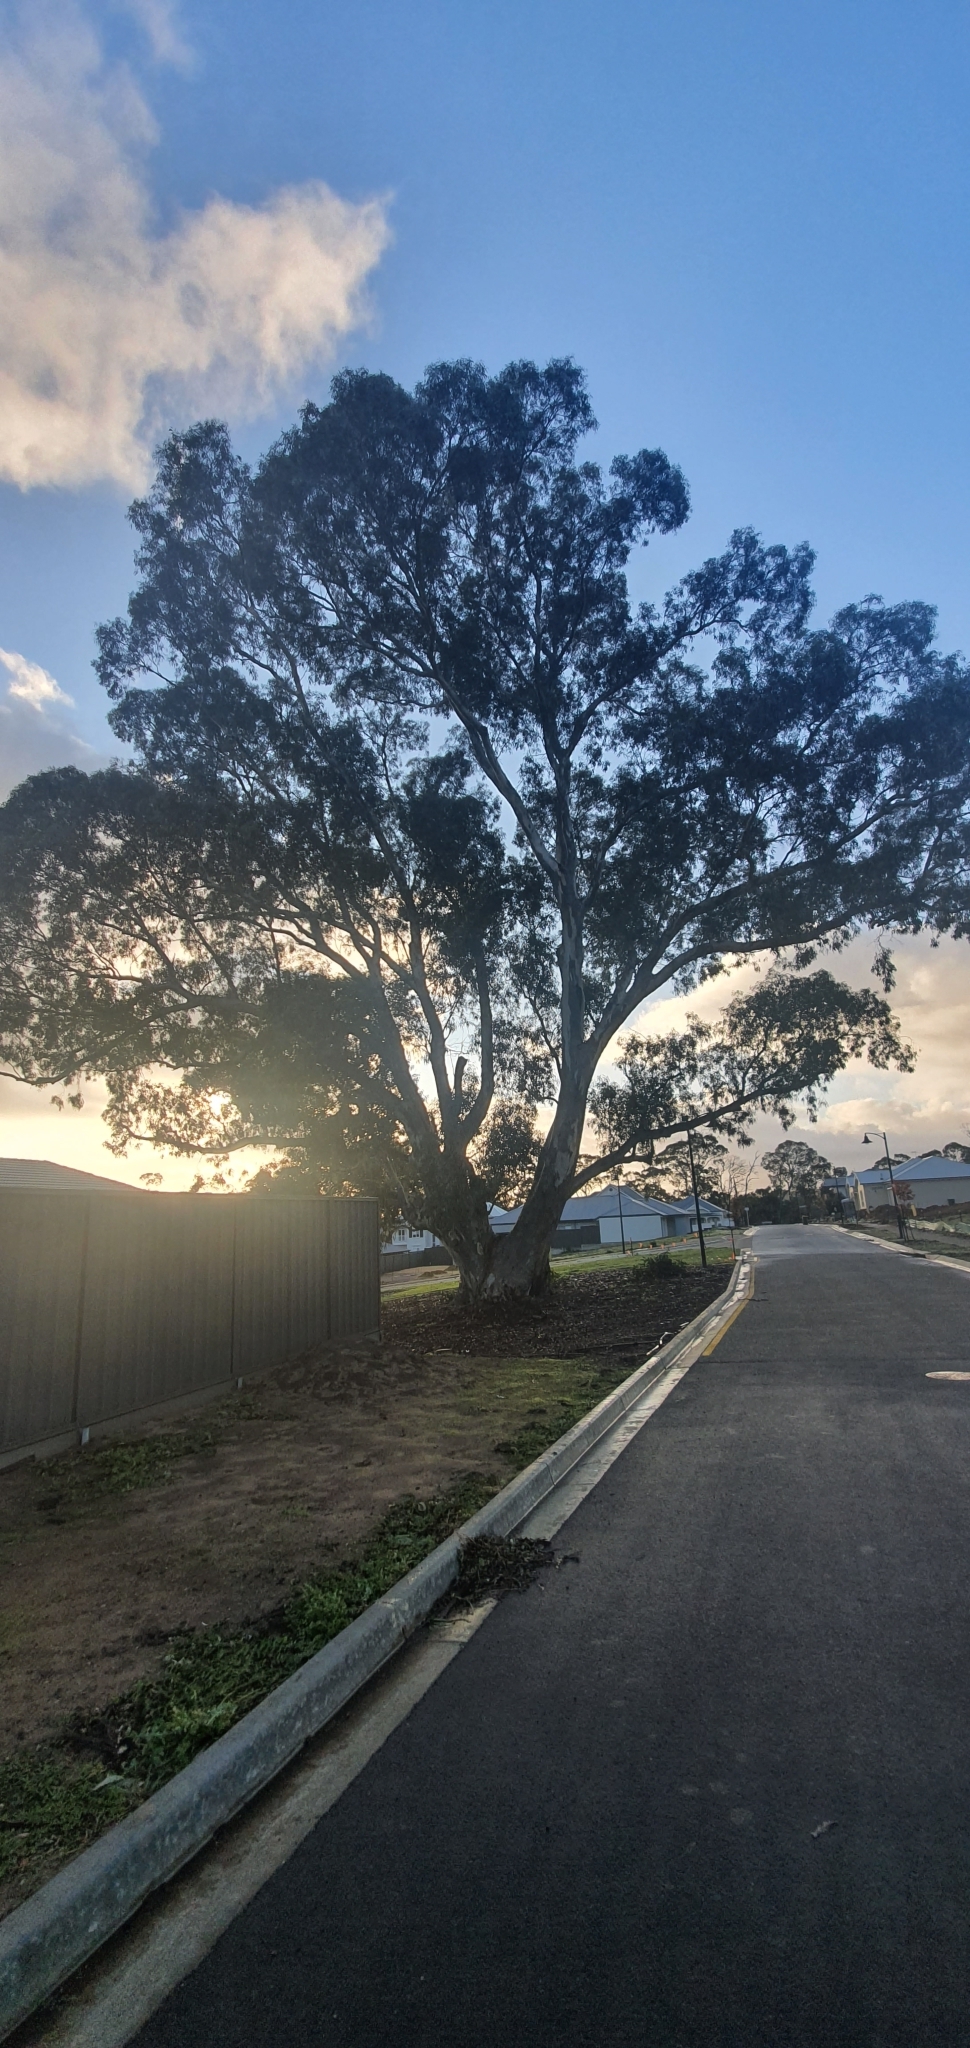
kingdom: Fungi
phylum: Basidiomycota
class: Agaricomycetes
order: Agaricales
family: Agaricaceae
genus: Agaricus
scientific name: Agaricus xanthodermus
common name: Yellow stainer
